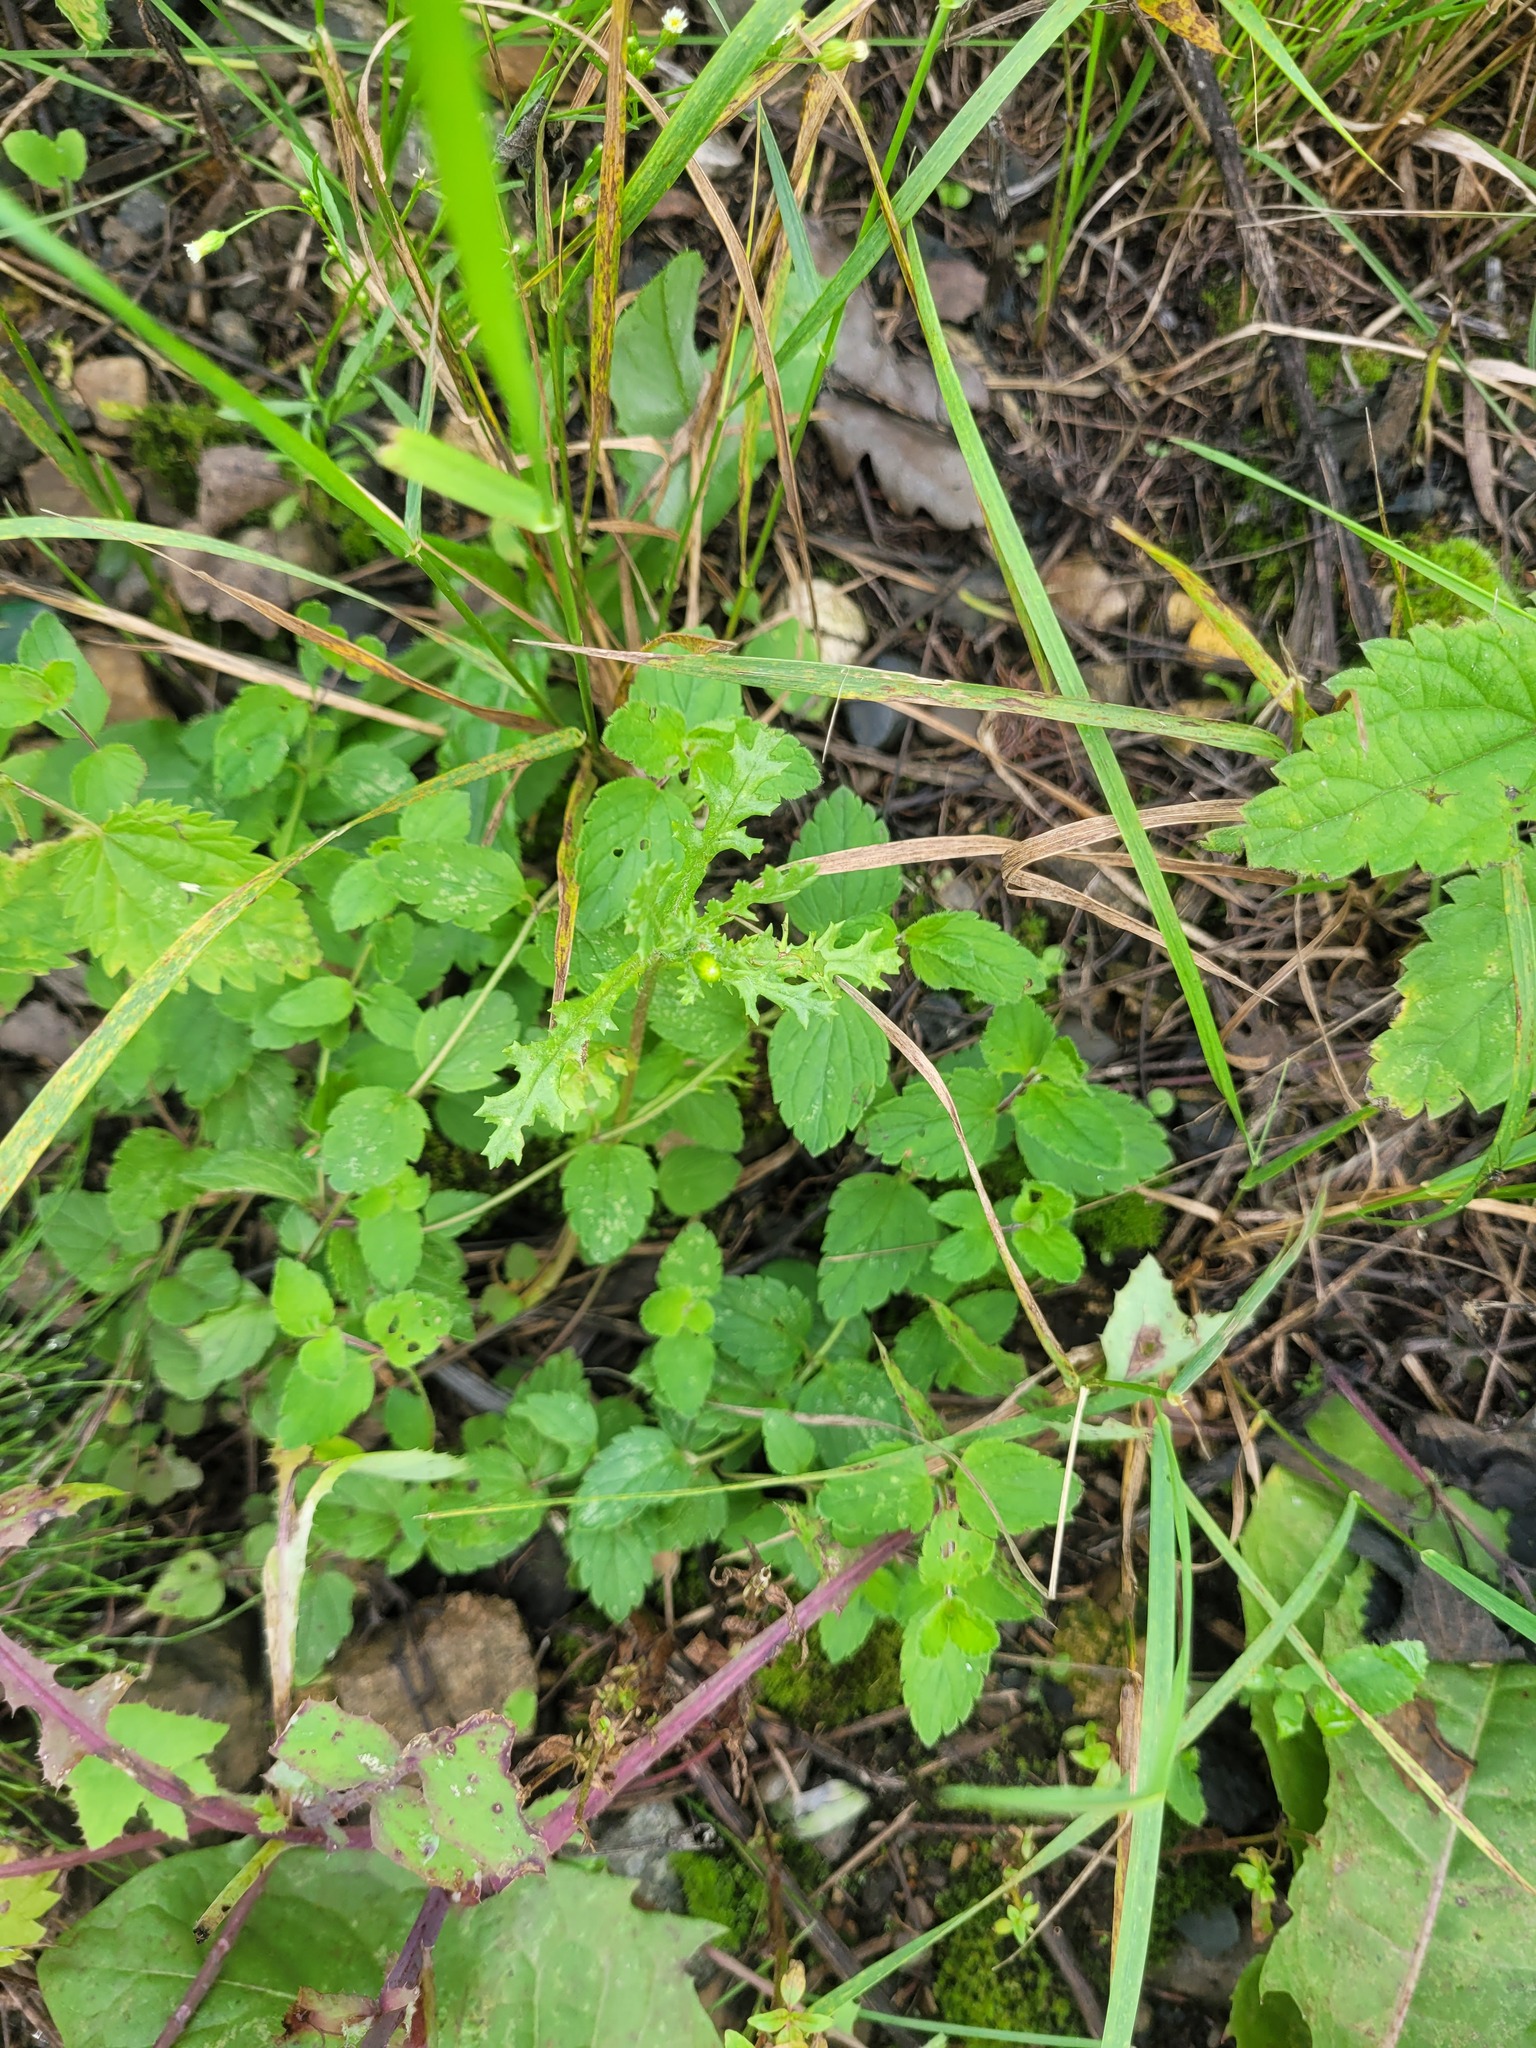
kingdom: Plantae
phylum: Tracheophyta
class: Magnoliopsida
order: Lamiales
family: Plantaginaceae
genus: Veronica
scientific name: Veronica chamaedrys
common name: Germander speedwell
